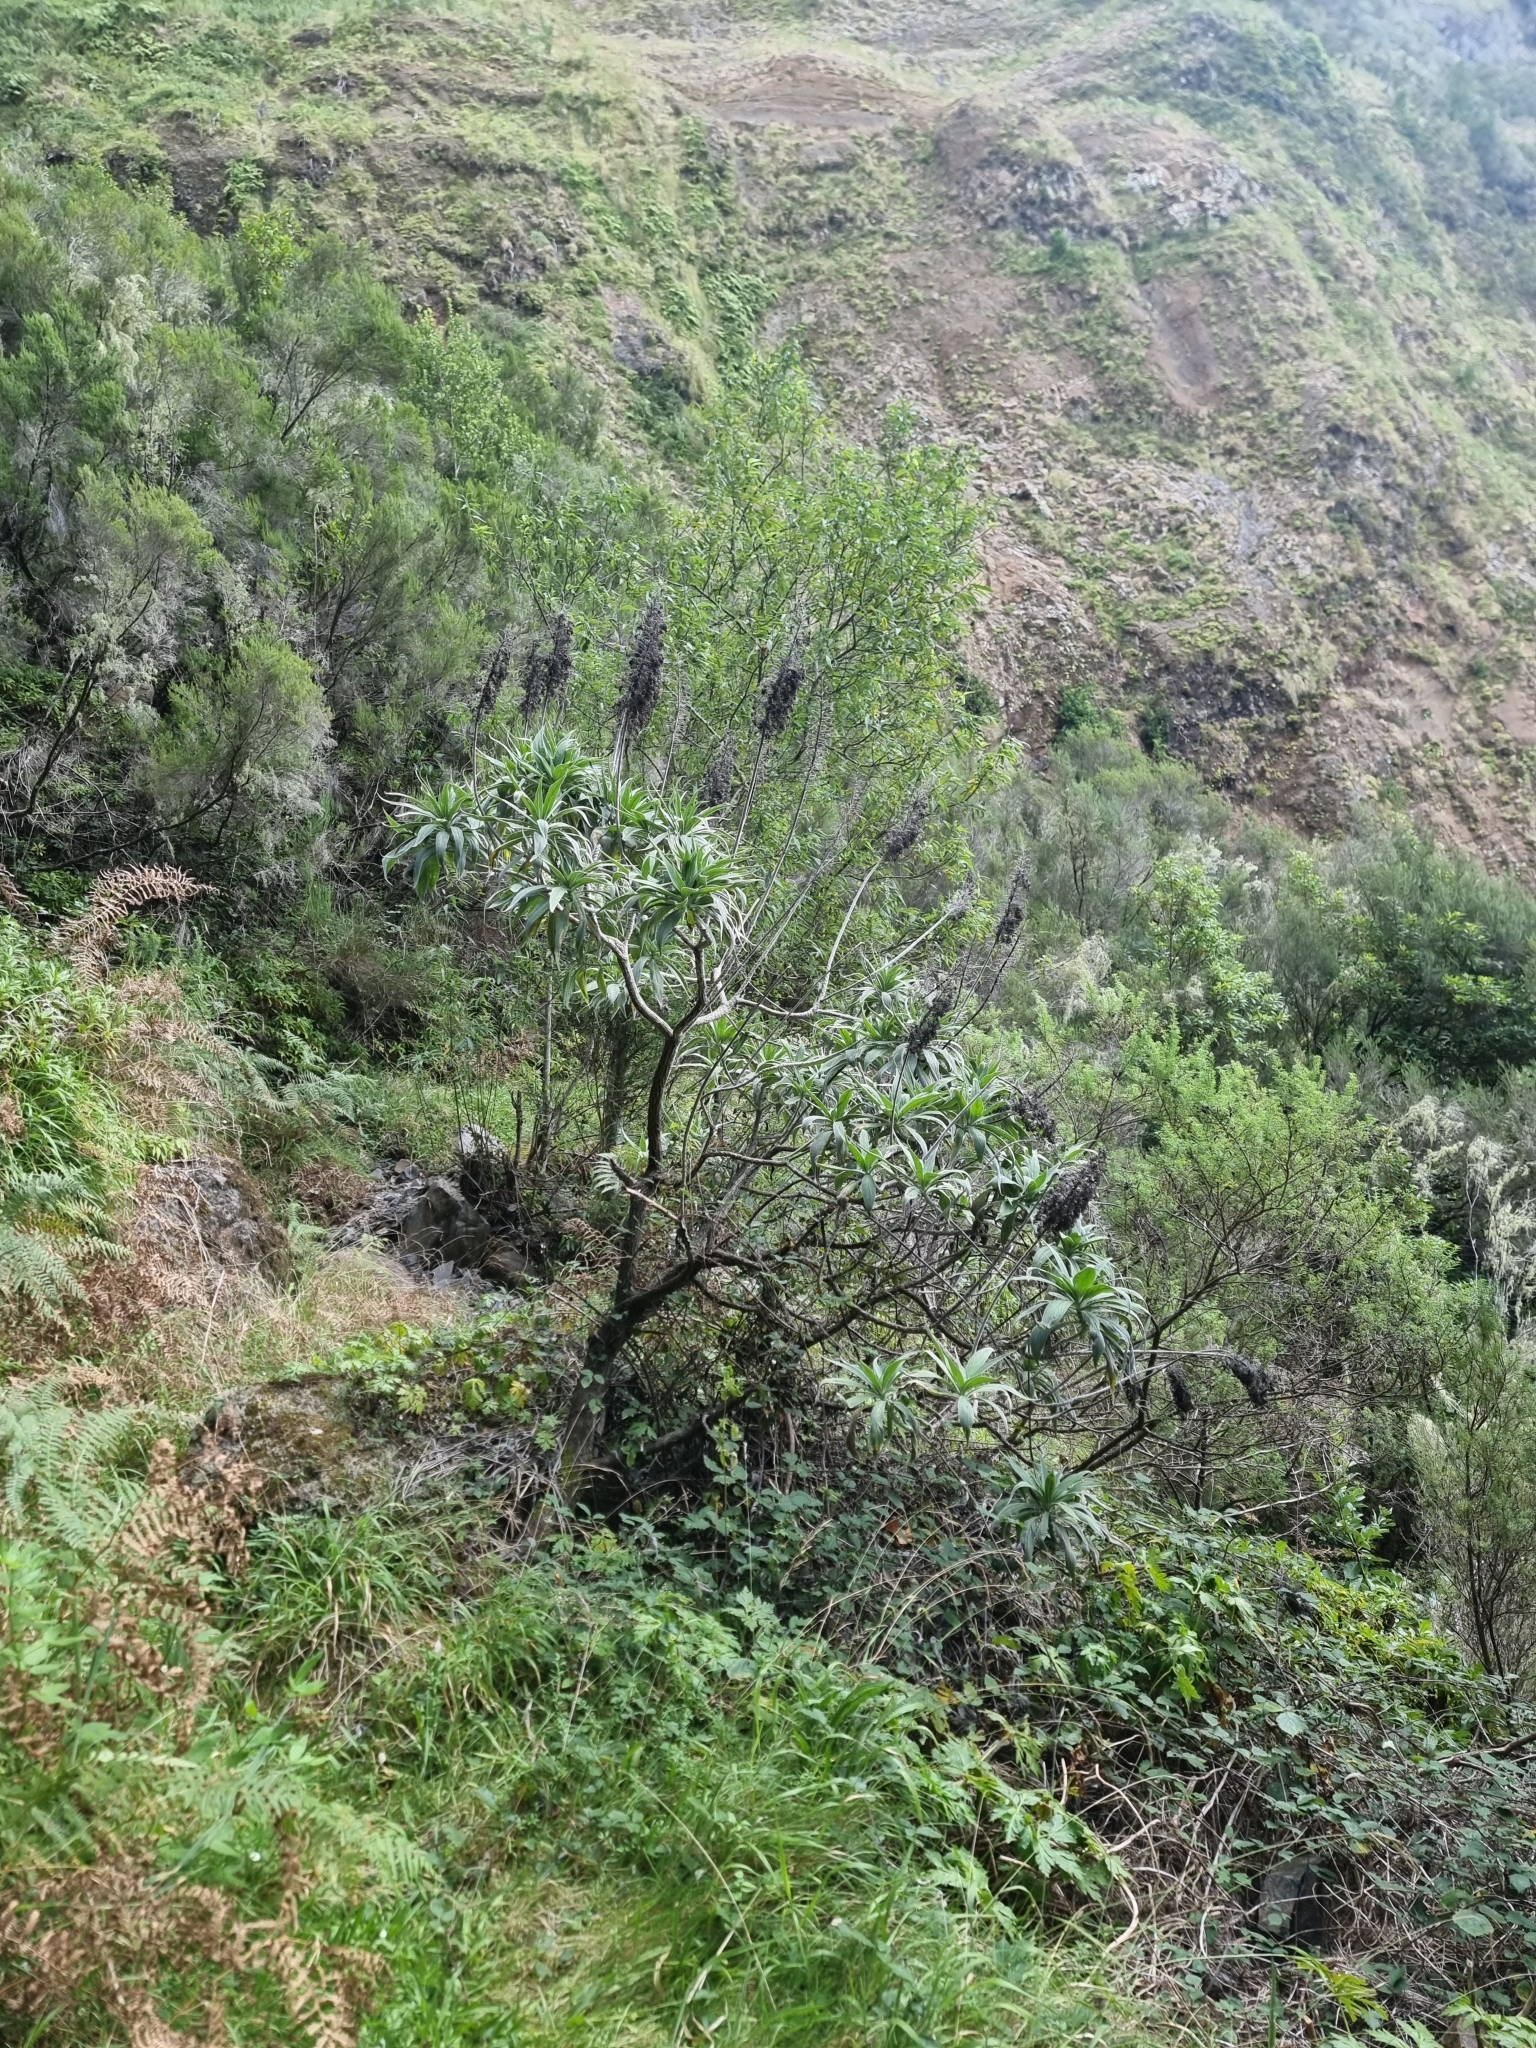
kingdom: Plantae
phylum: Tracheophyta
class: Magnoliopsida
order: Boraginales
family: Boraginaceae
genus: Echium
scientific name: Echium candicans
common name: Pride of madeira
